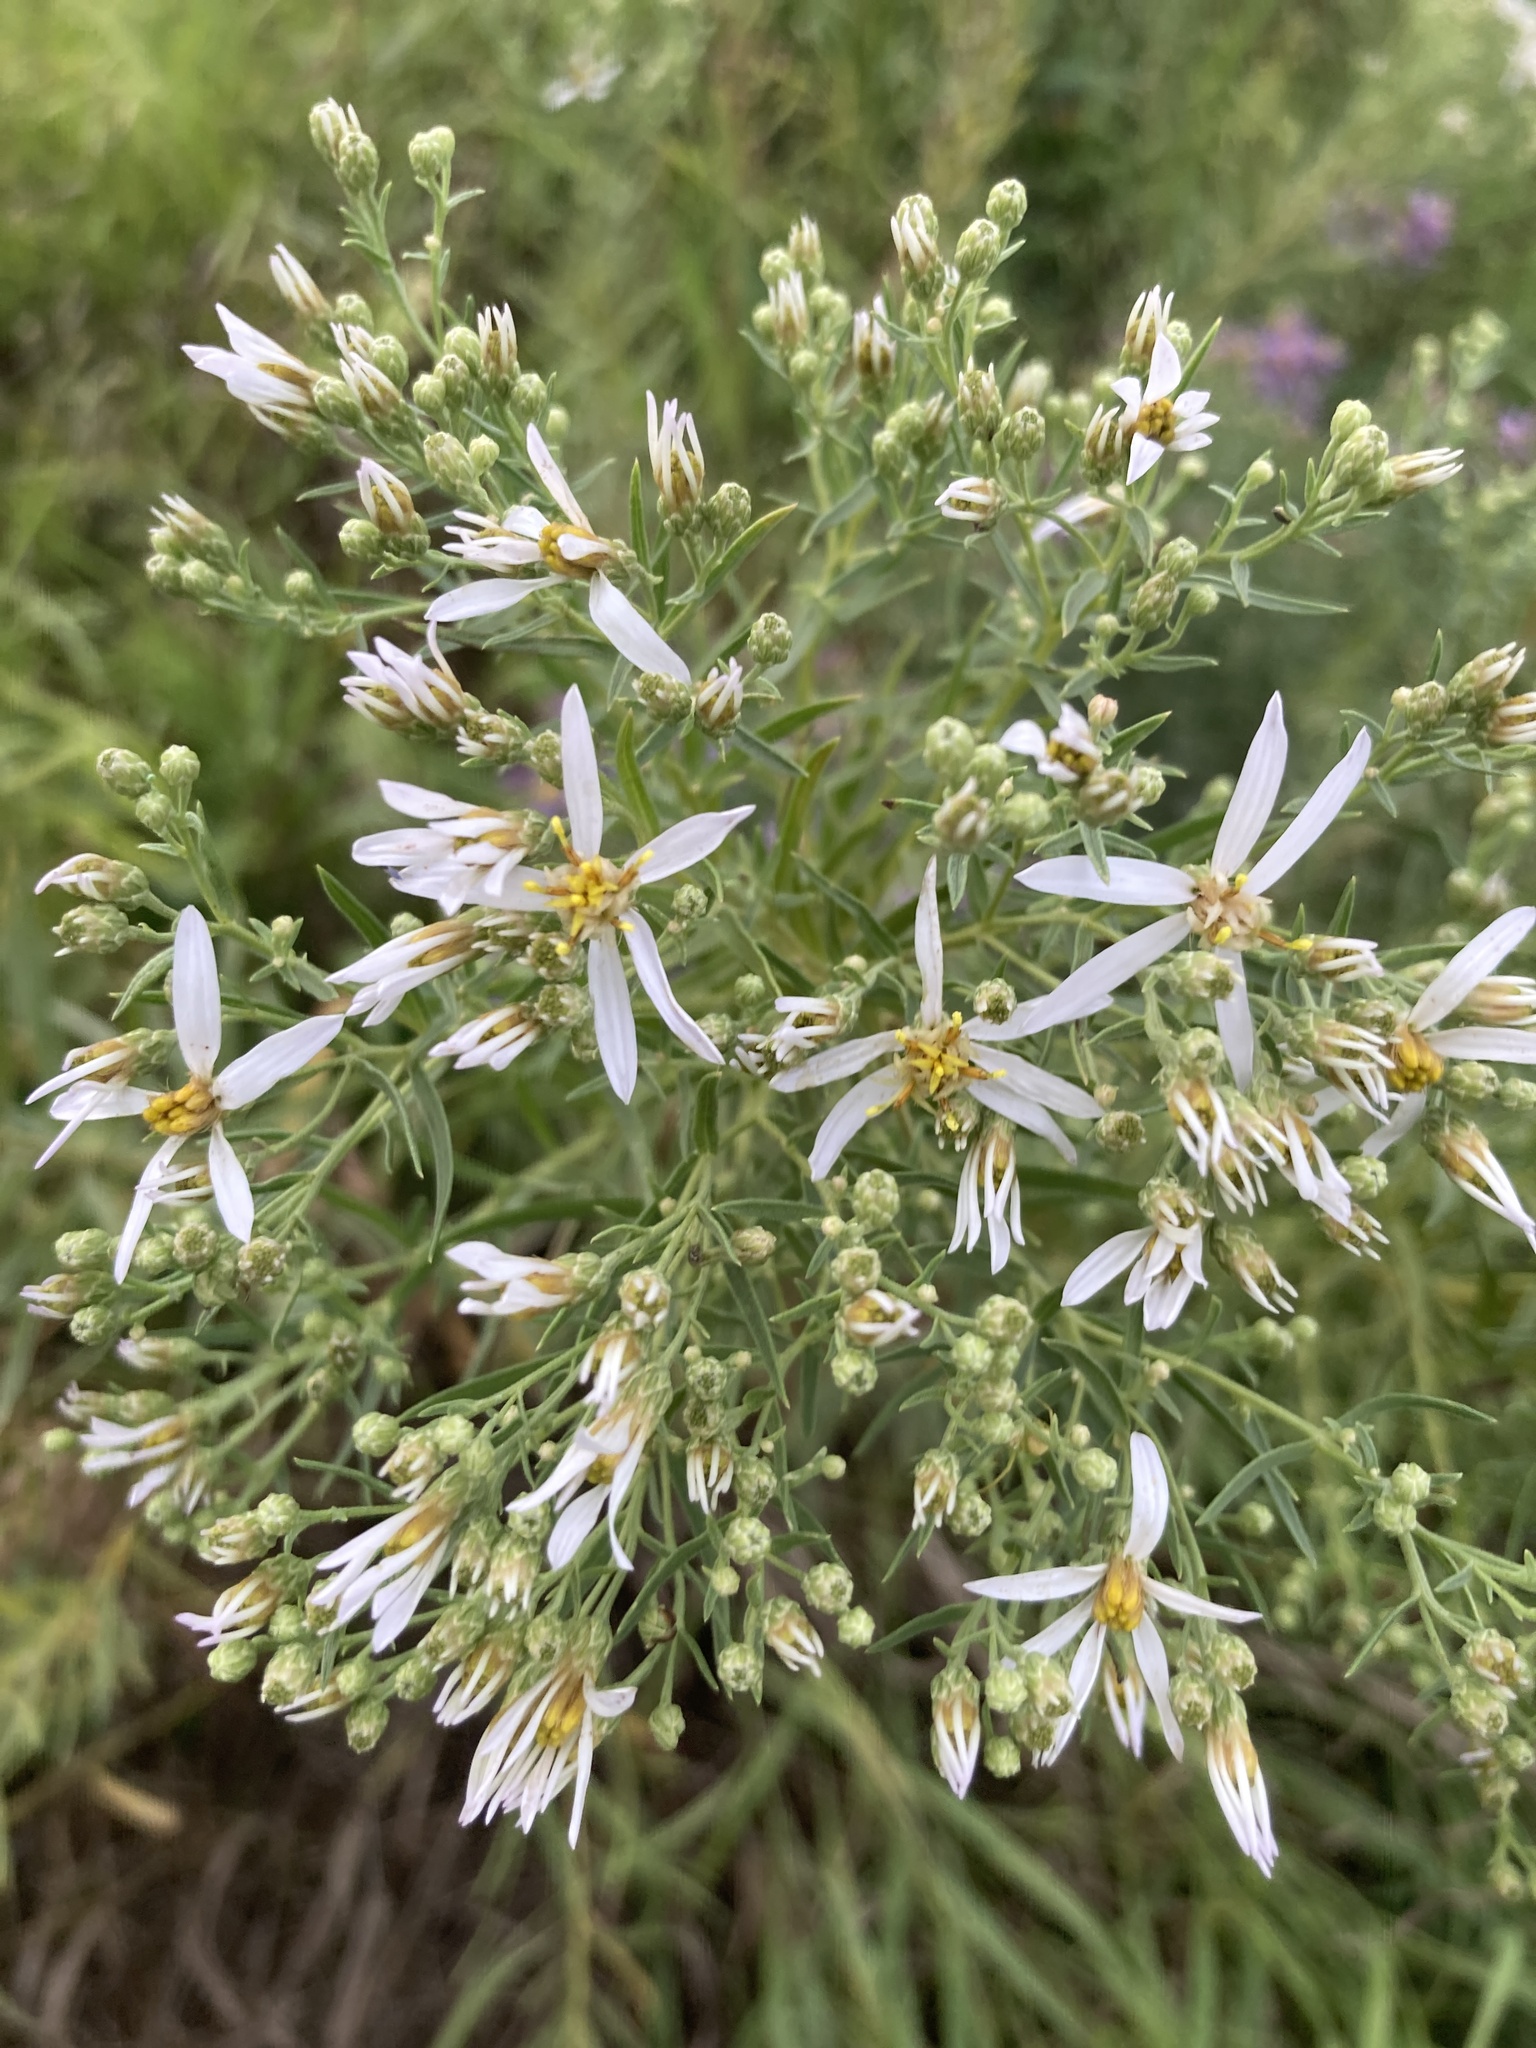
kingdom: Plantae
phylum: Tracheophyta
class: Magnoliopsida
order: Asterales
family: Asteraceae
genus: Galatella
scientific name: Galatella sedifolia
